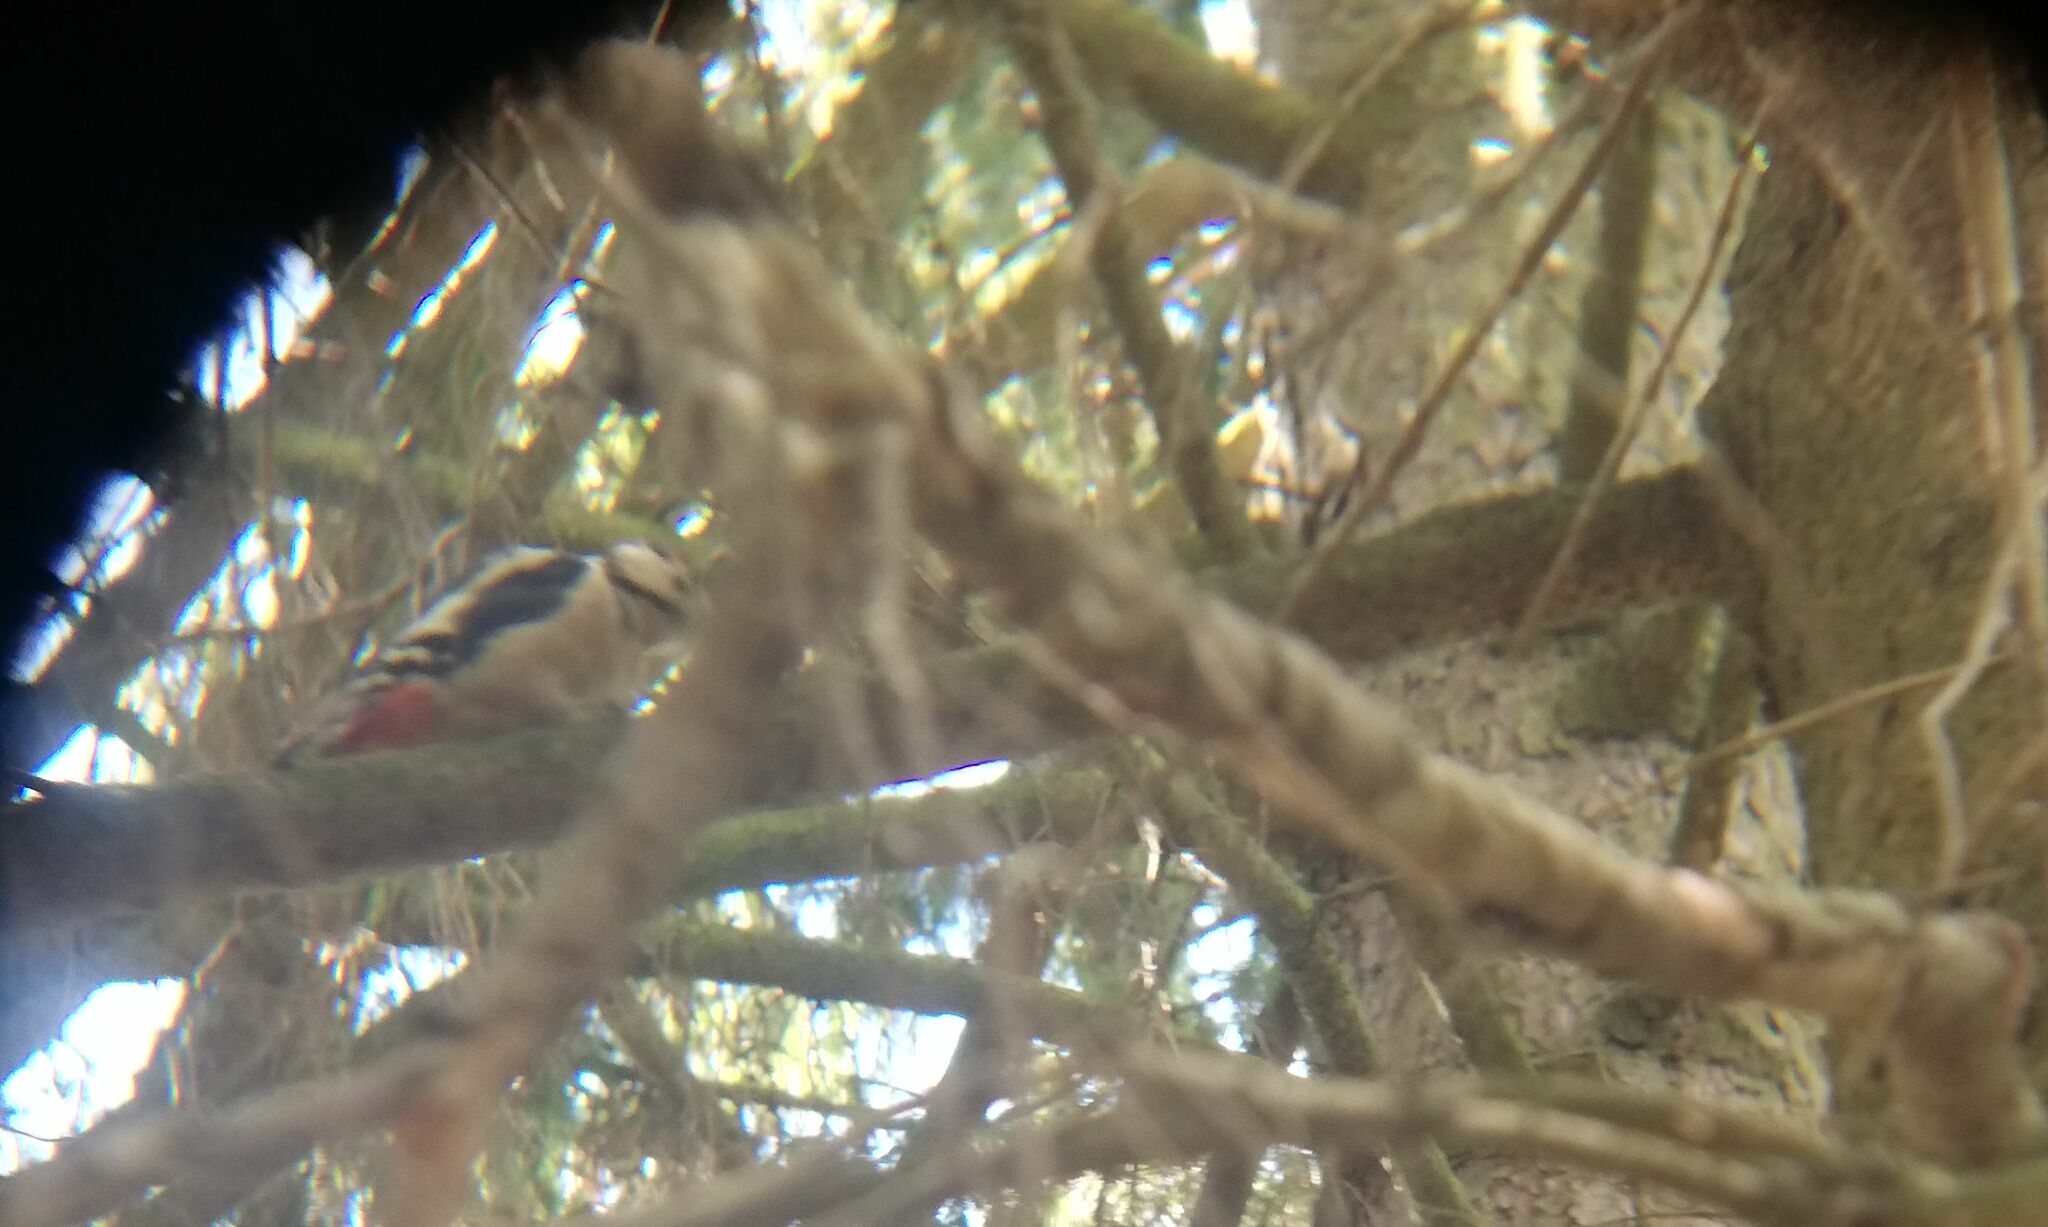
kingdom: Animalia
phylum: Chordata
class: Aves
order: Piciformes
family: Picidae
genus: Dendrocopos
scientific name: Dendrocopos major
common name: Great spotted woodpecker
